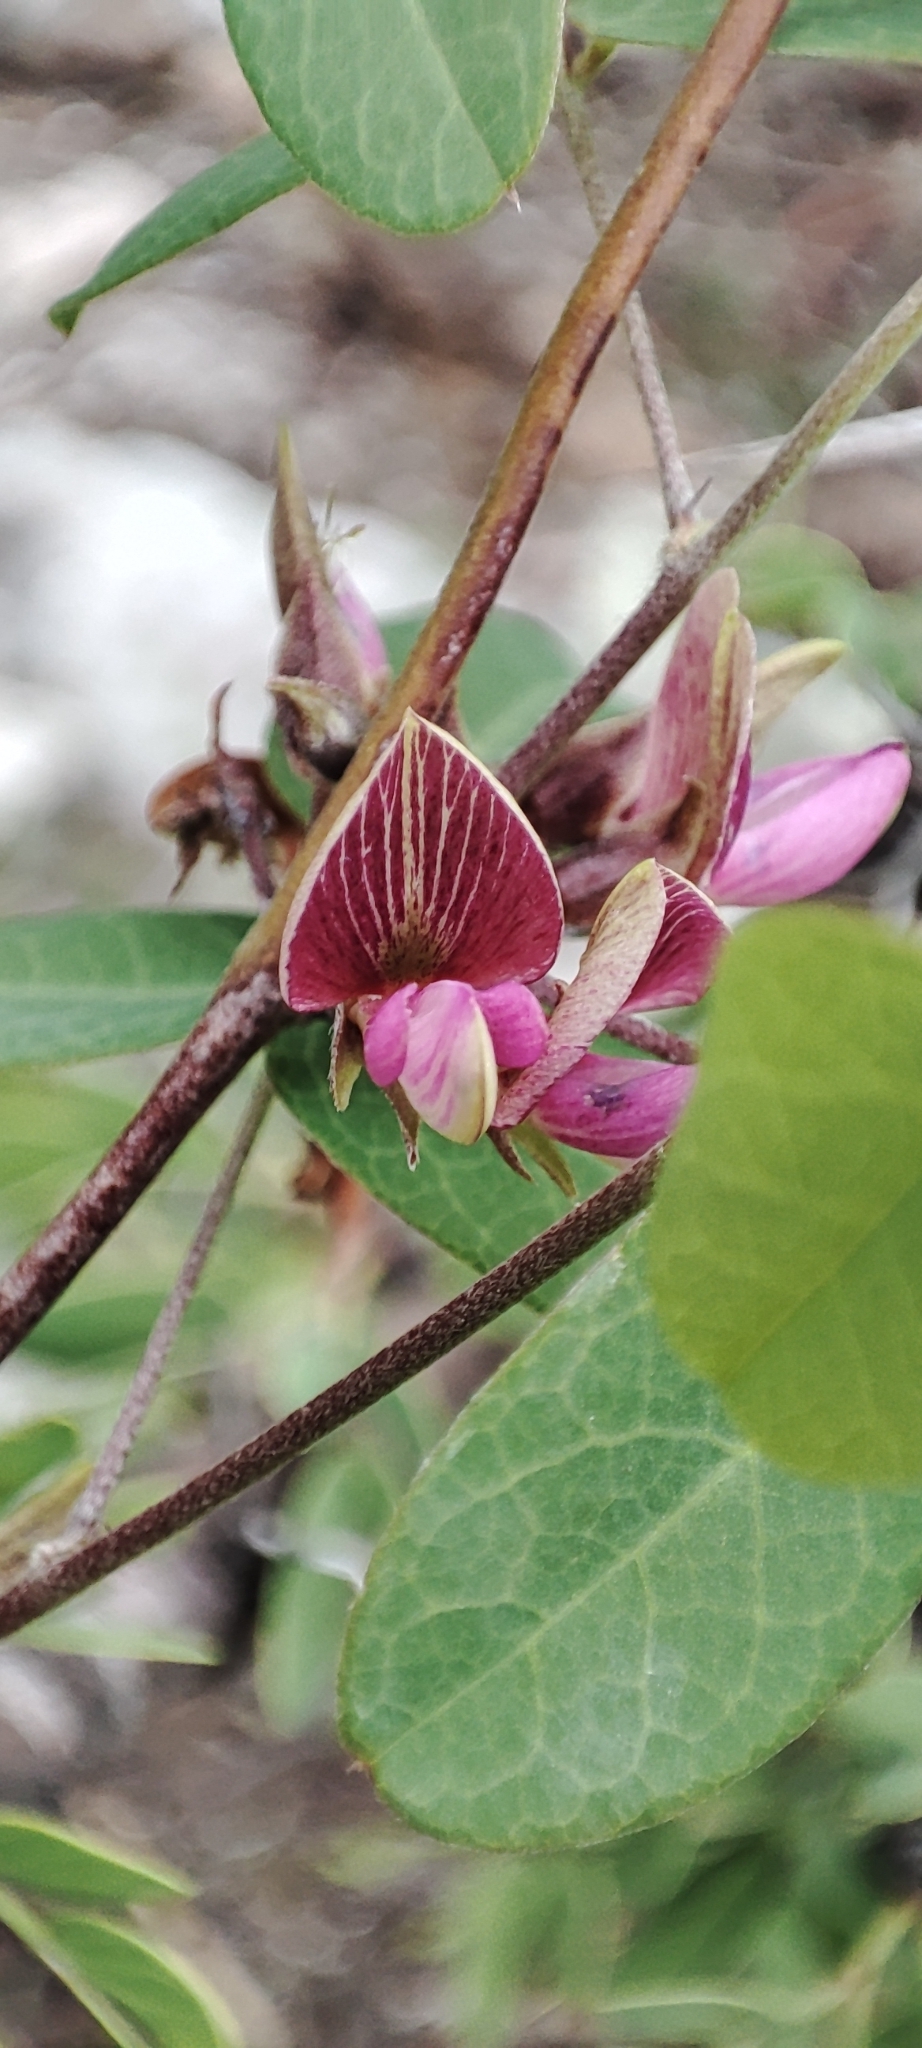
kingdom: Plantae
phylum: Tracheophyta
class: Magnoliopsida
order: Fabales
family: Fabaceae
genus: Nanogalactia
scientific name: Nanogalactia brachystachys
